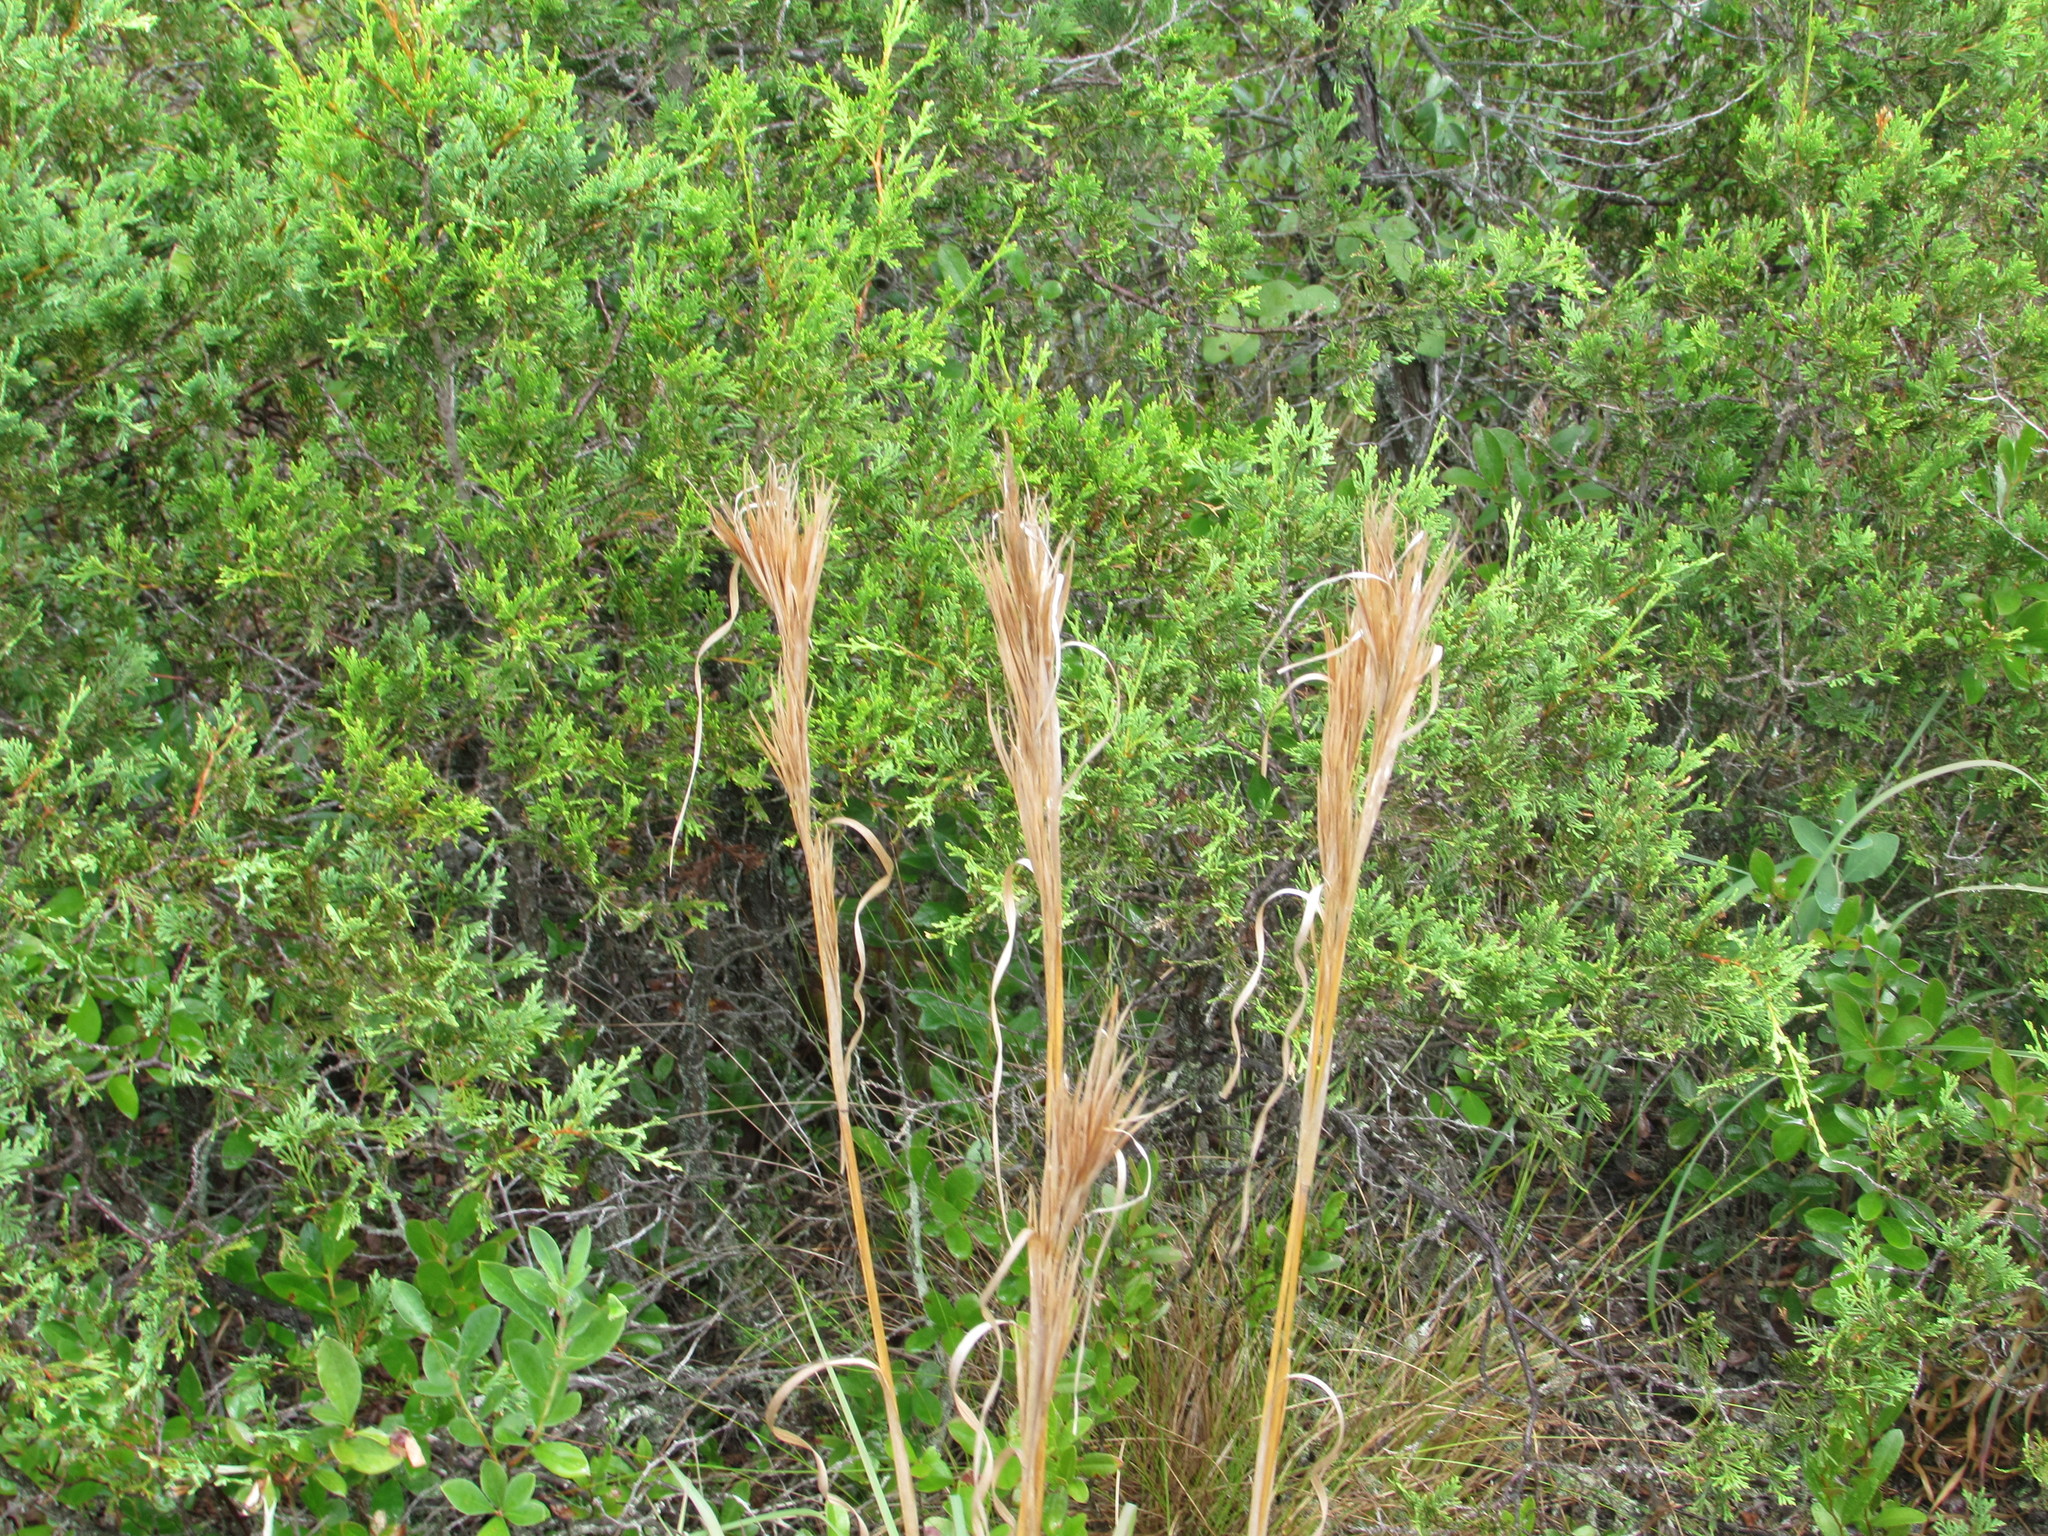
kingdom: Plantae
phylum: Tracheophyta
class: Liliopsida
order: Poales
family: Poaceae
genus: Andropogon
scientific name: Andropogon glomeratus
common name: Bushy beard grass
